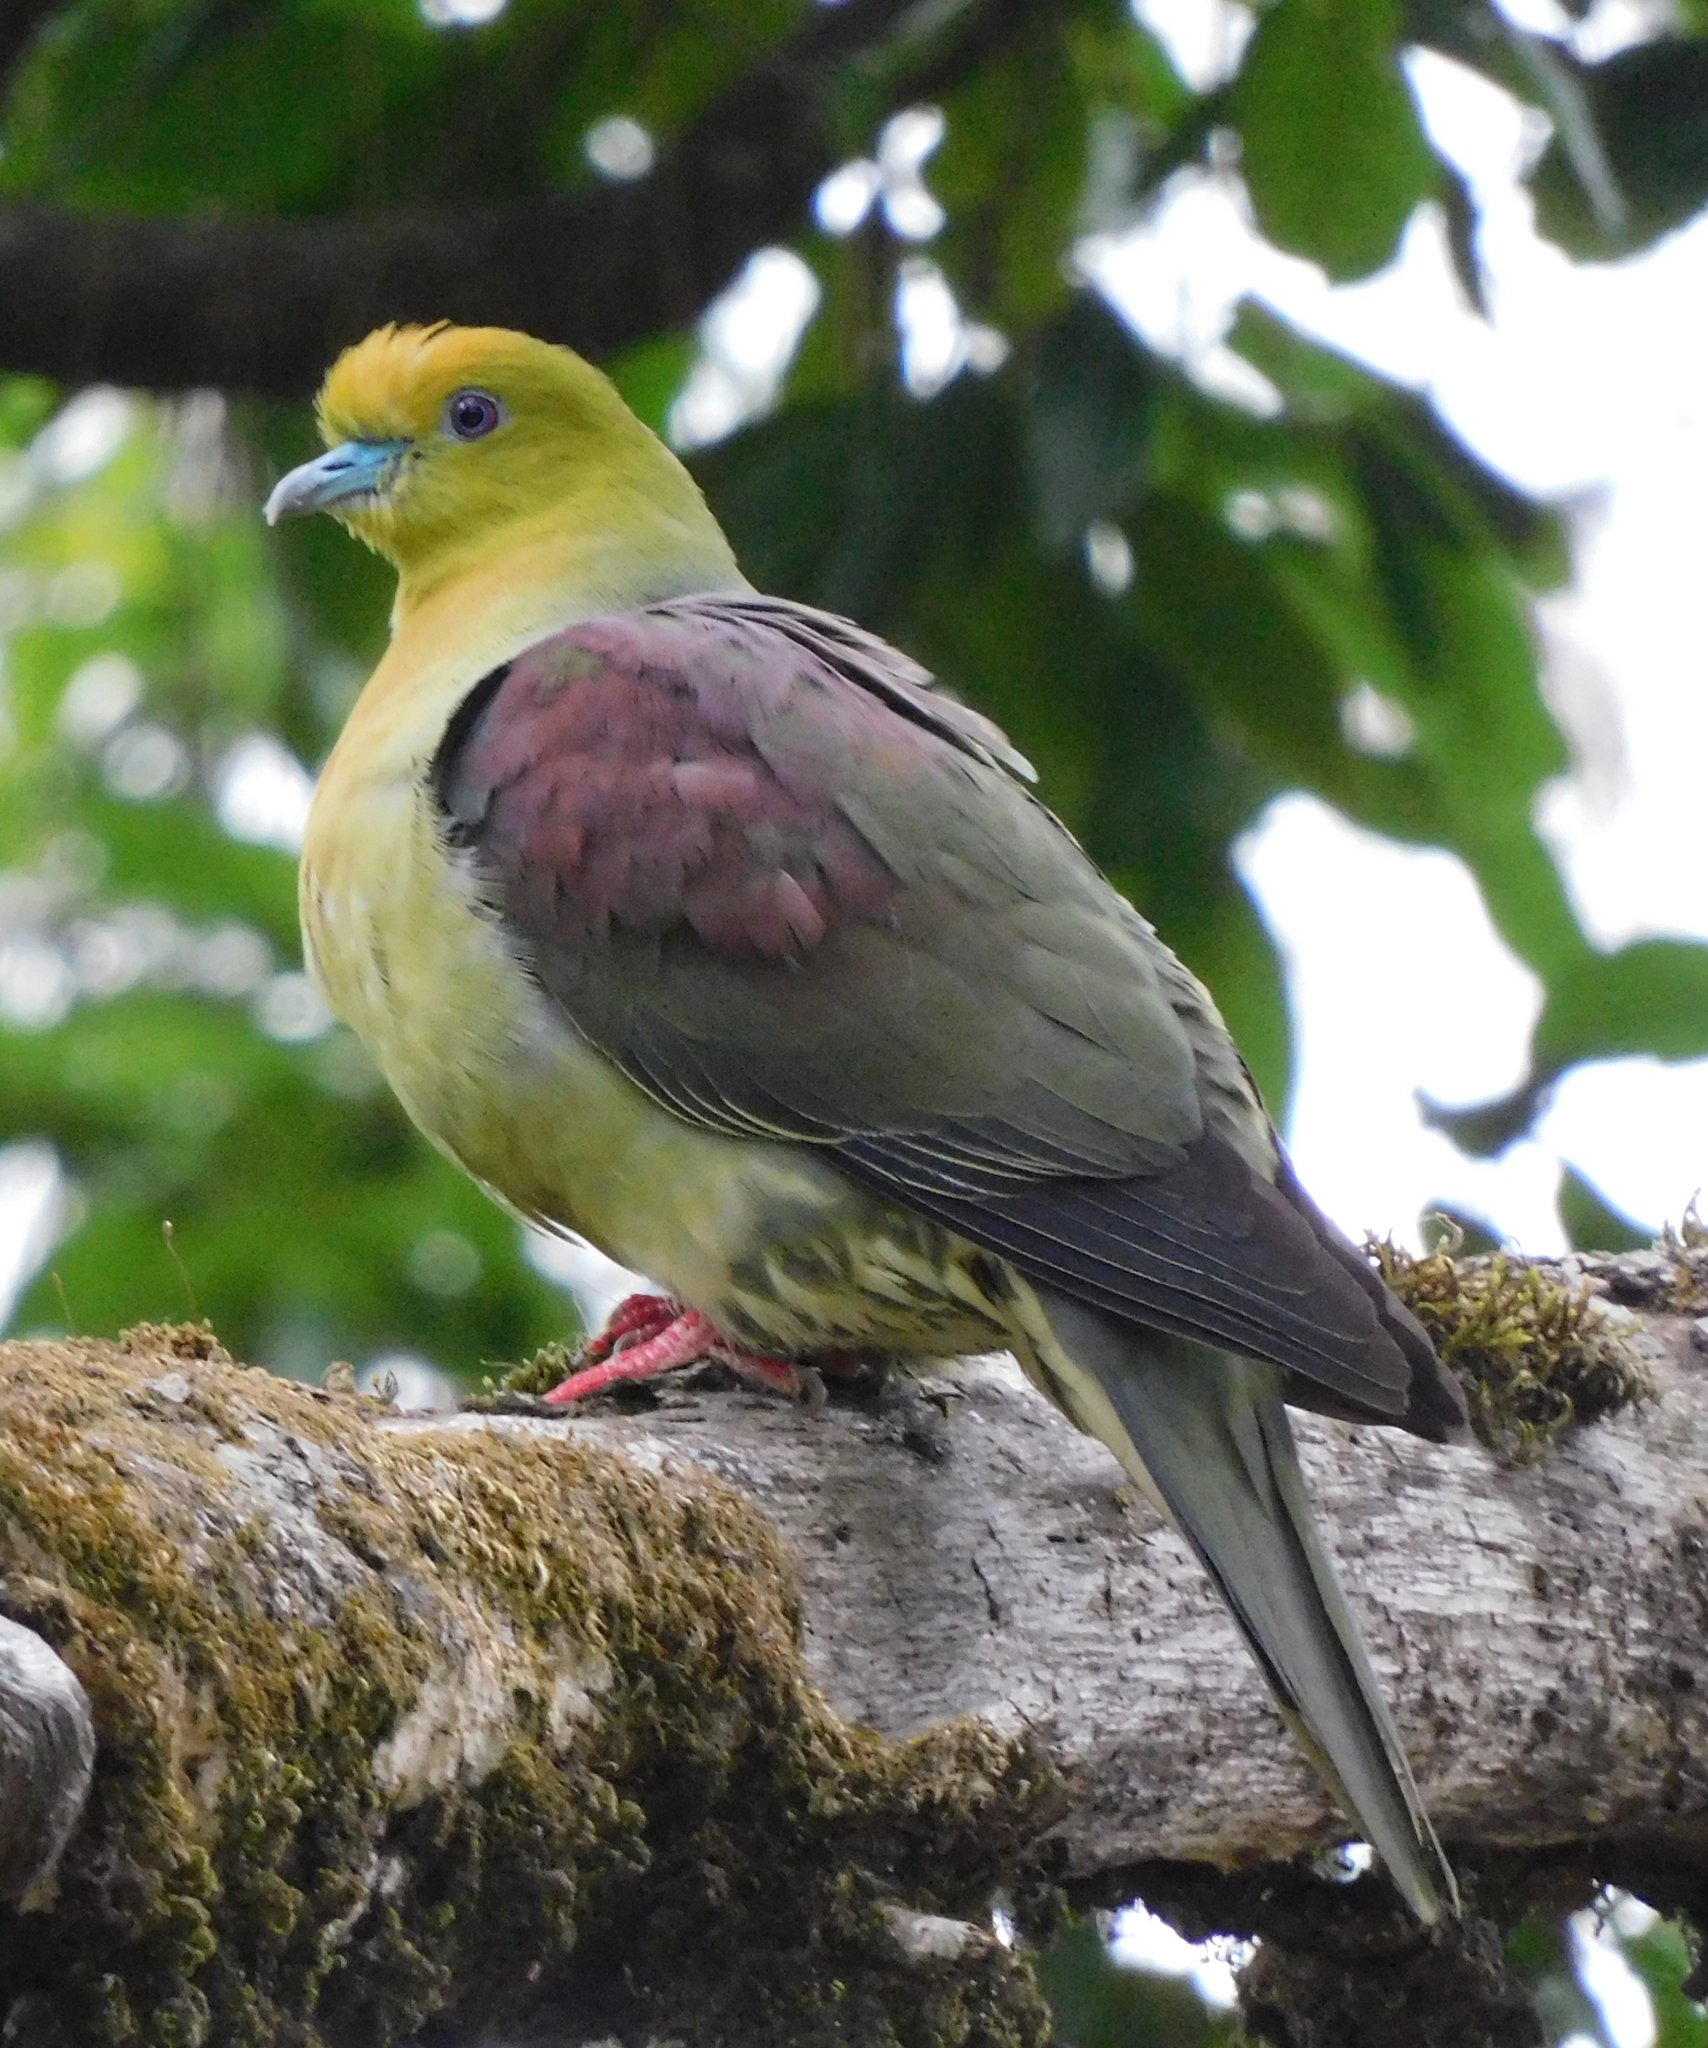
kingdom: Animalia
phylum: Chordata
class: Aves
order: Columbiformes
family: Columbidae
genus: Treron
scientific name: Treron sphenurus
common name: Wedge-tailed green pigeon
